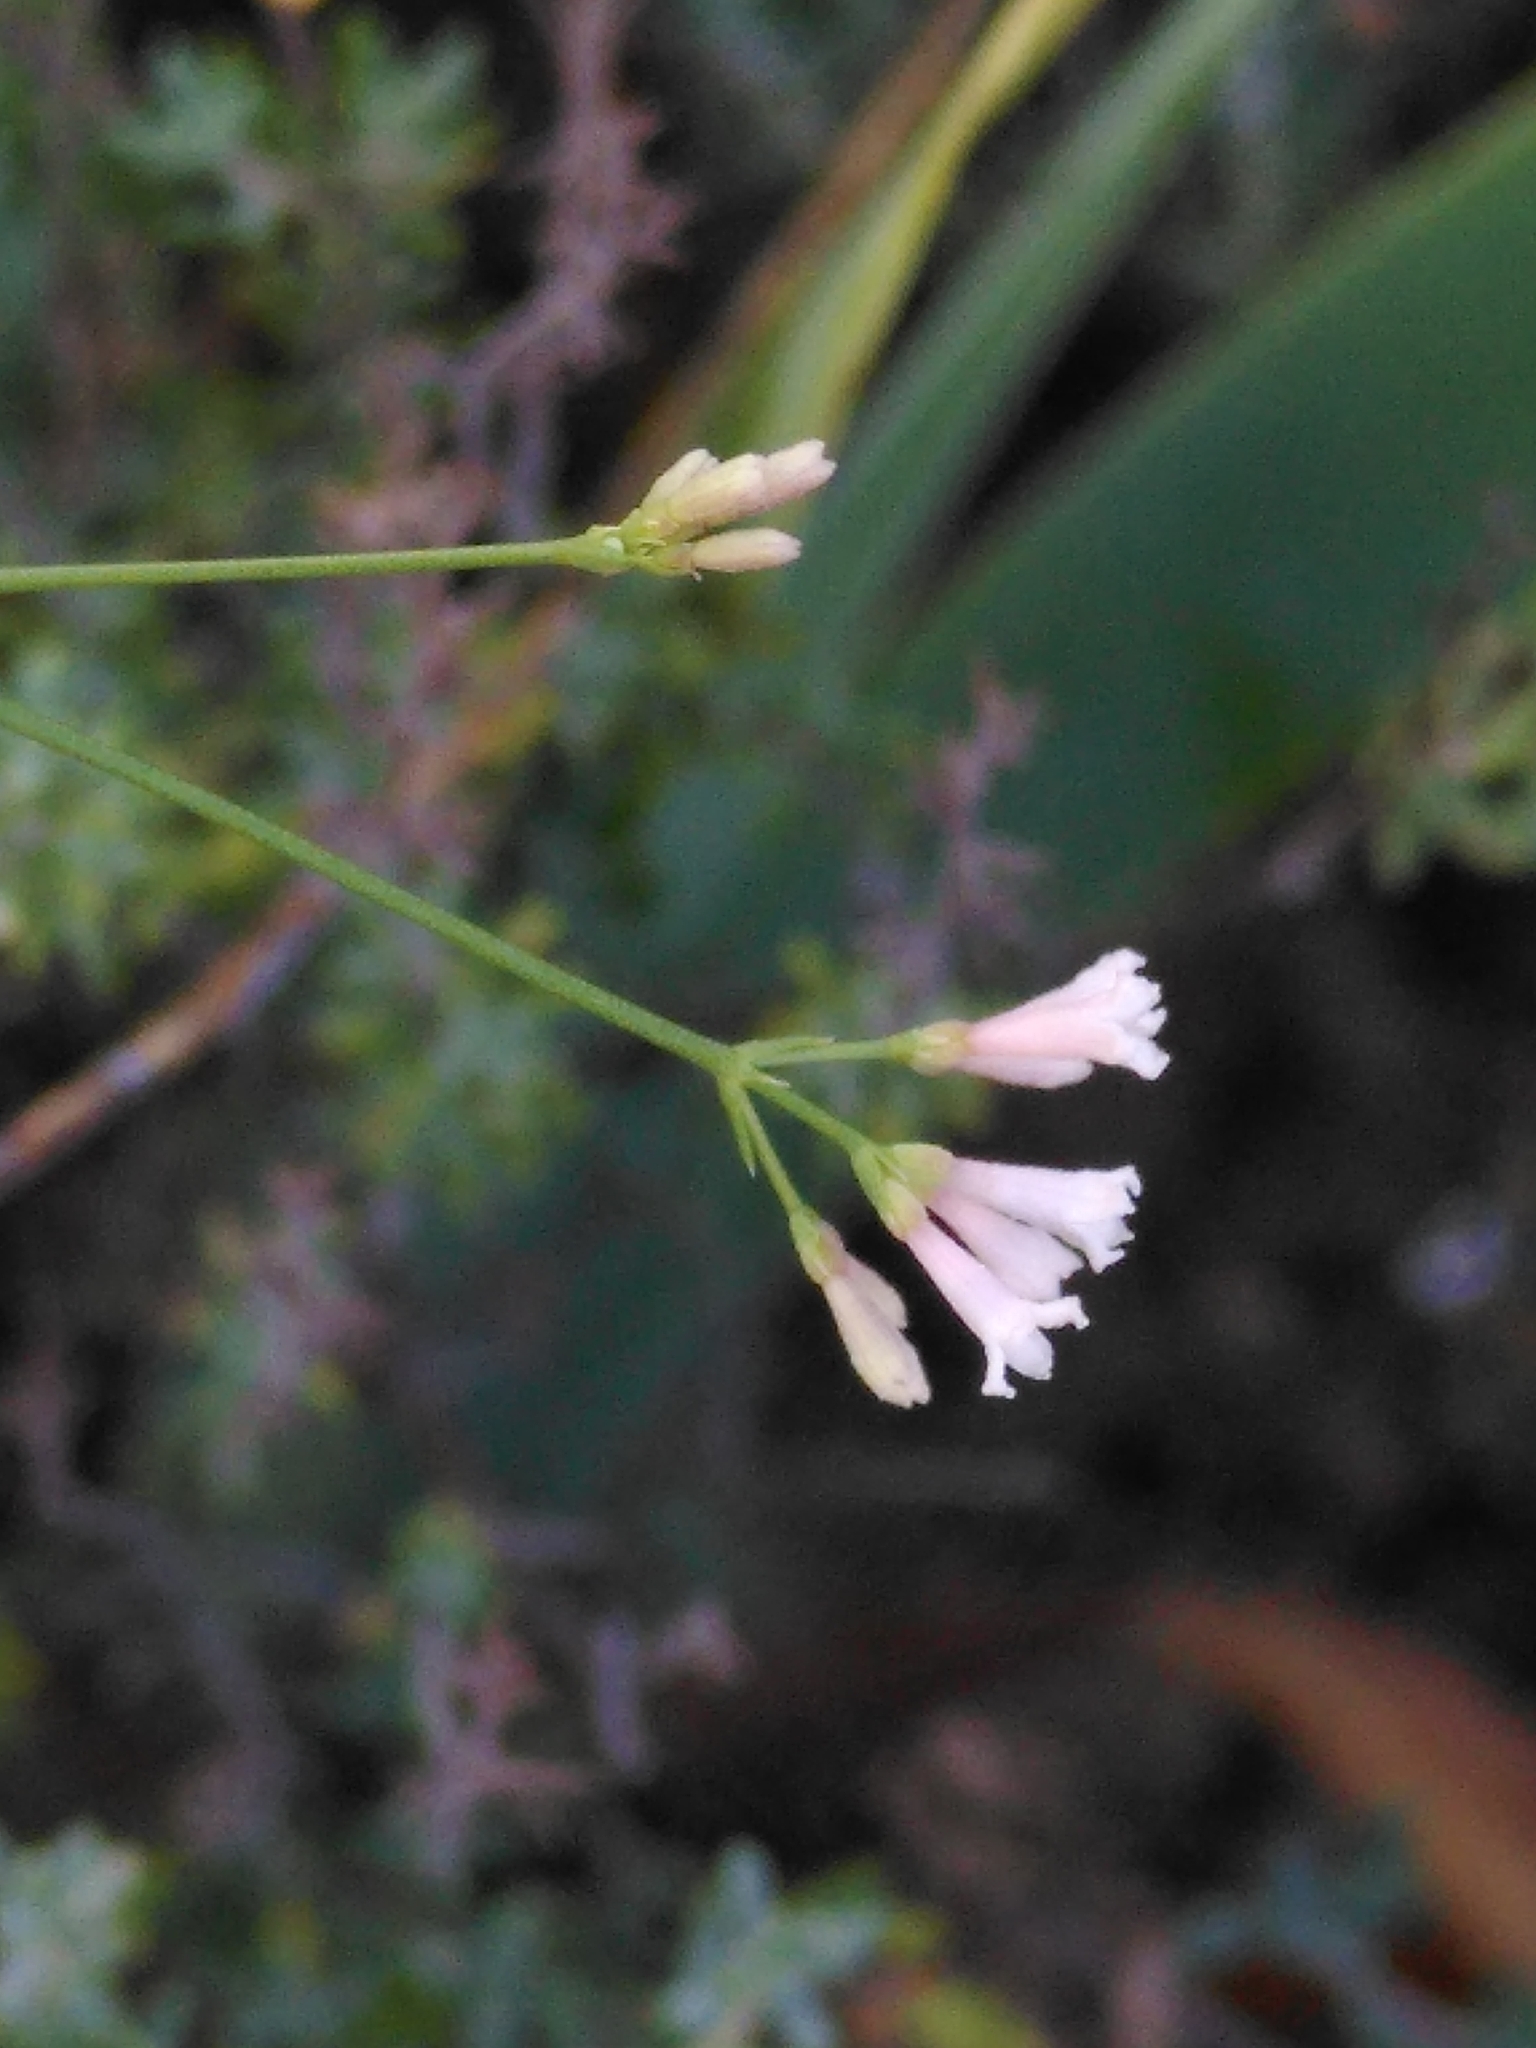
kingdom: Plantae
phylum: Tracheophyta
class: Magnoliopsida
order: Gentianales
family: Rubiaceae
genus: Cynanchica
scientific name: Cynanchica pyrenaica
